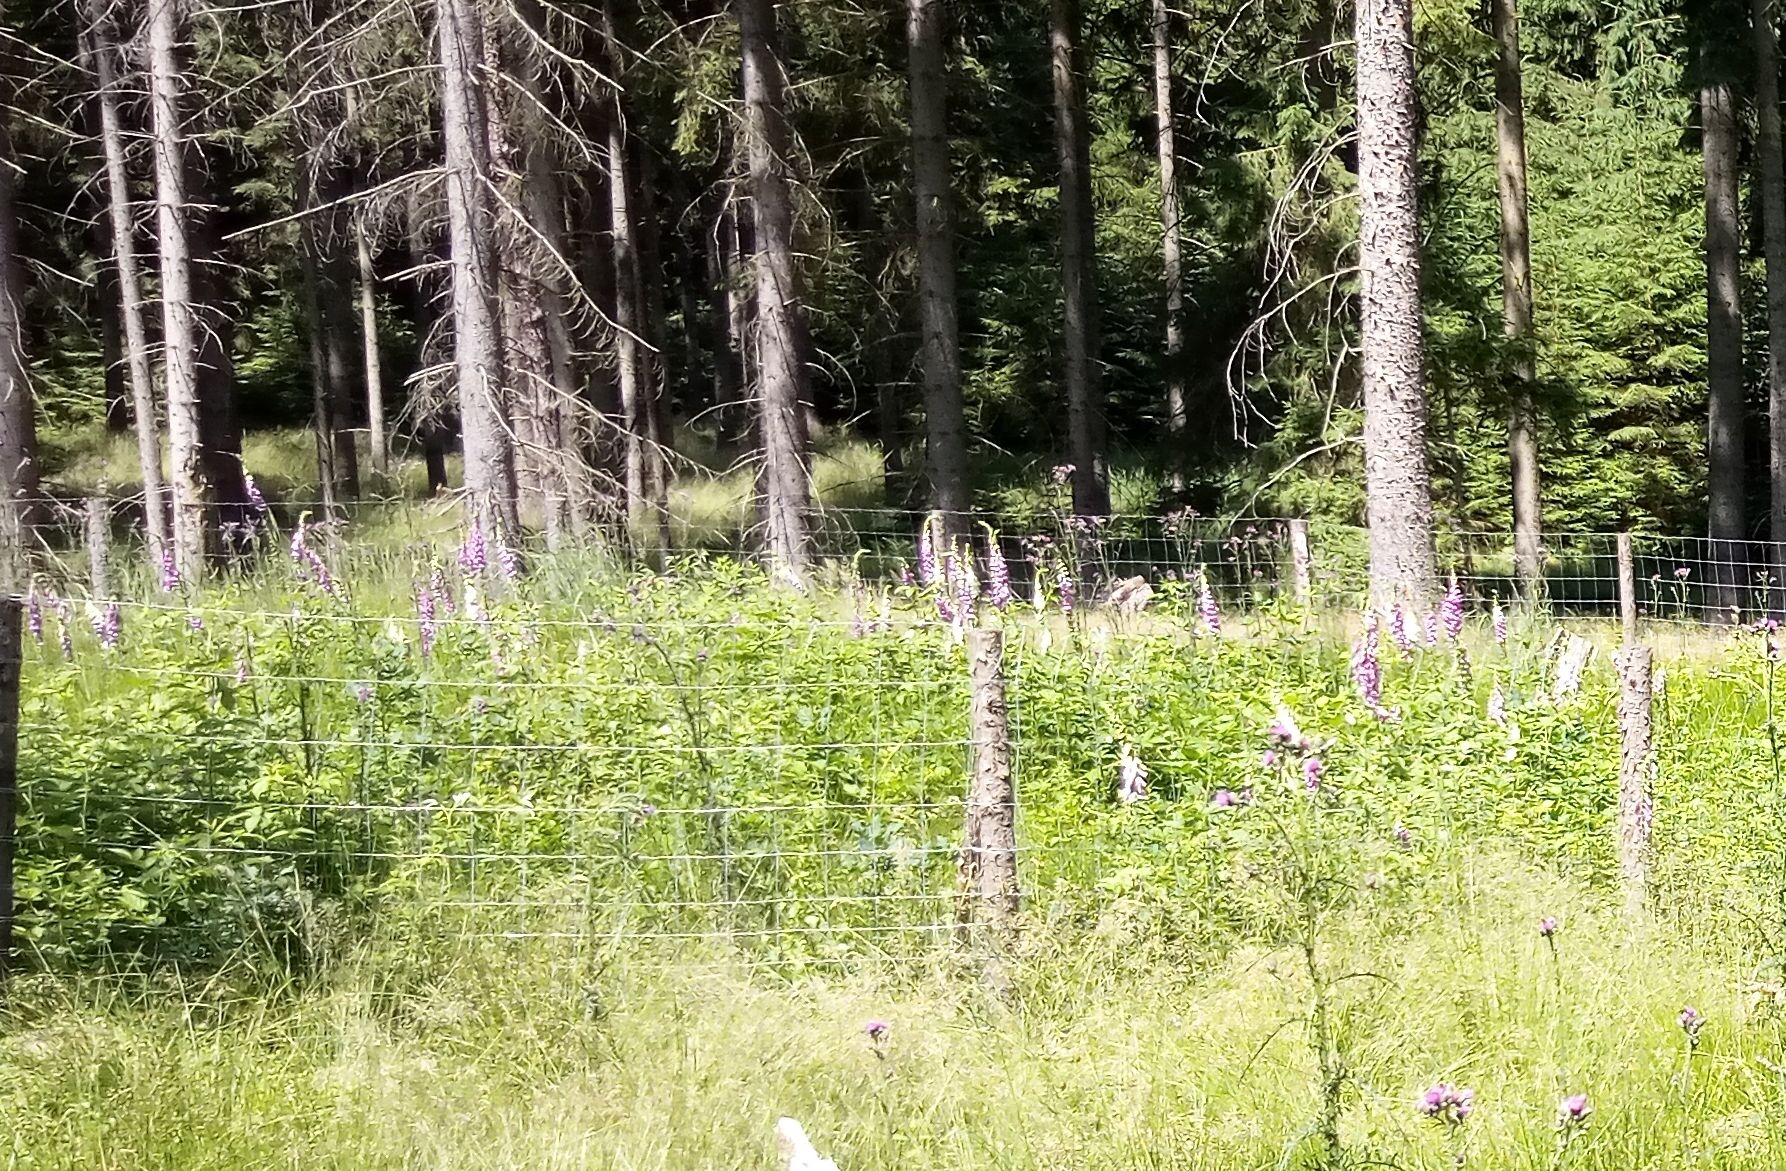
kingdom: Plantae
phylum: Tracheophyta
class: Magnoliopsida
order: Lamiales
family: Plantaginaceae
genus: Digitalis
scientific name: Digitalis purpurea
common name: Foxglove
